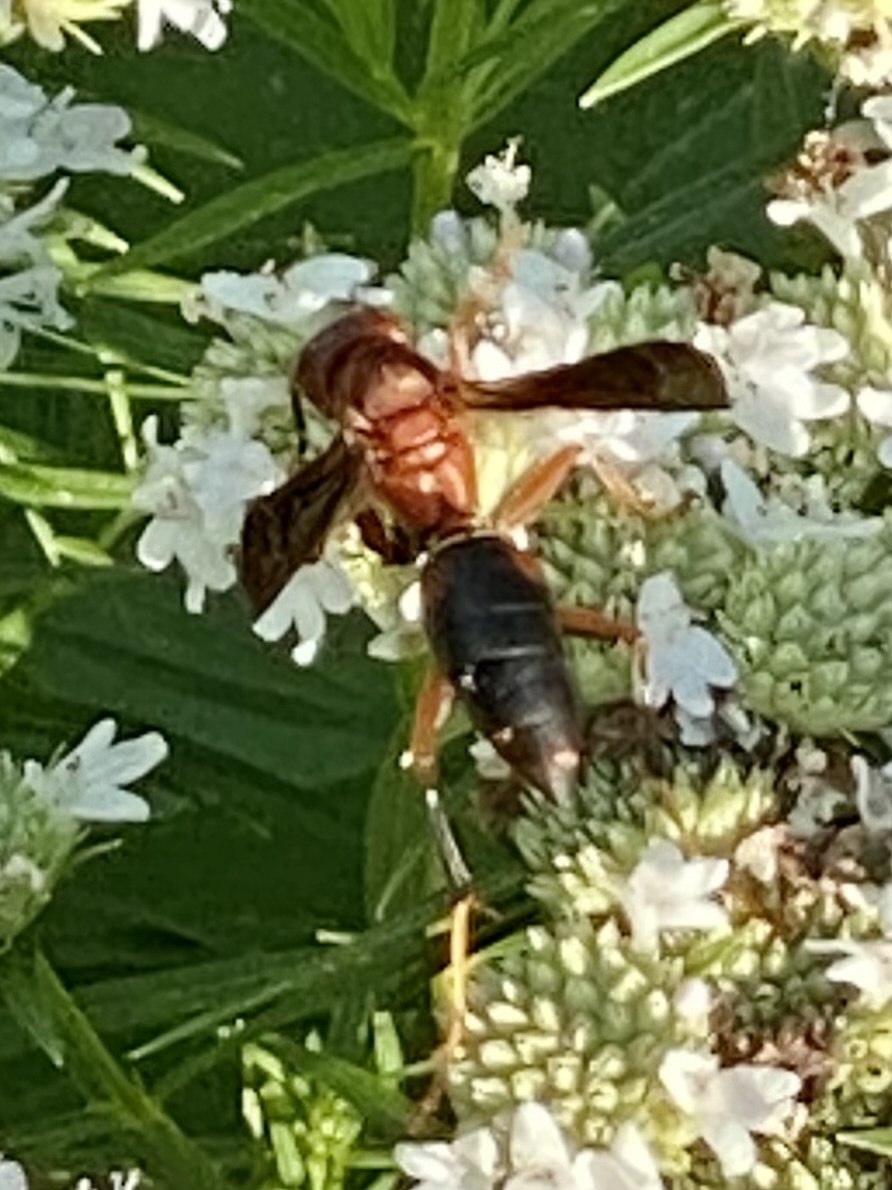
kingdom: Animalia
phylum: Arthropoda
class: Insecta
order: Hymenoptera
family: Eumenidae
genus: Polistes
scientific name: Polistes metricus
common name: Metric paper wasp
